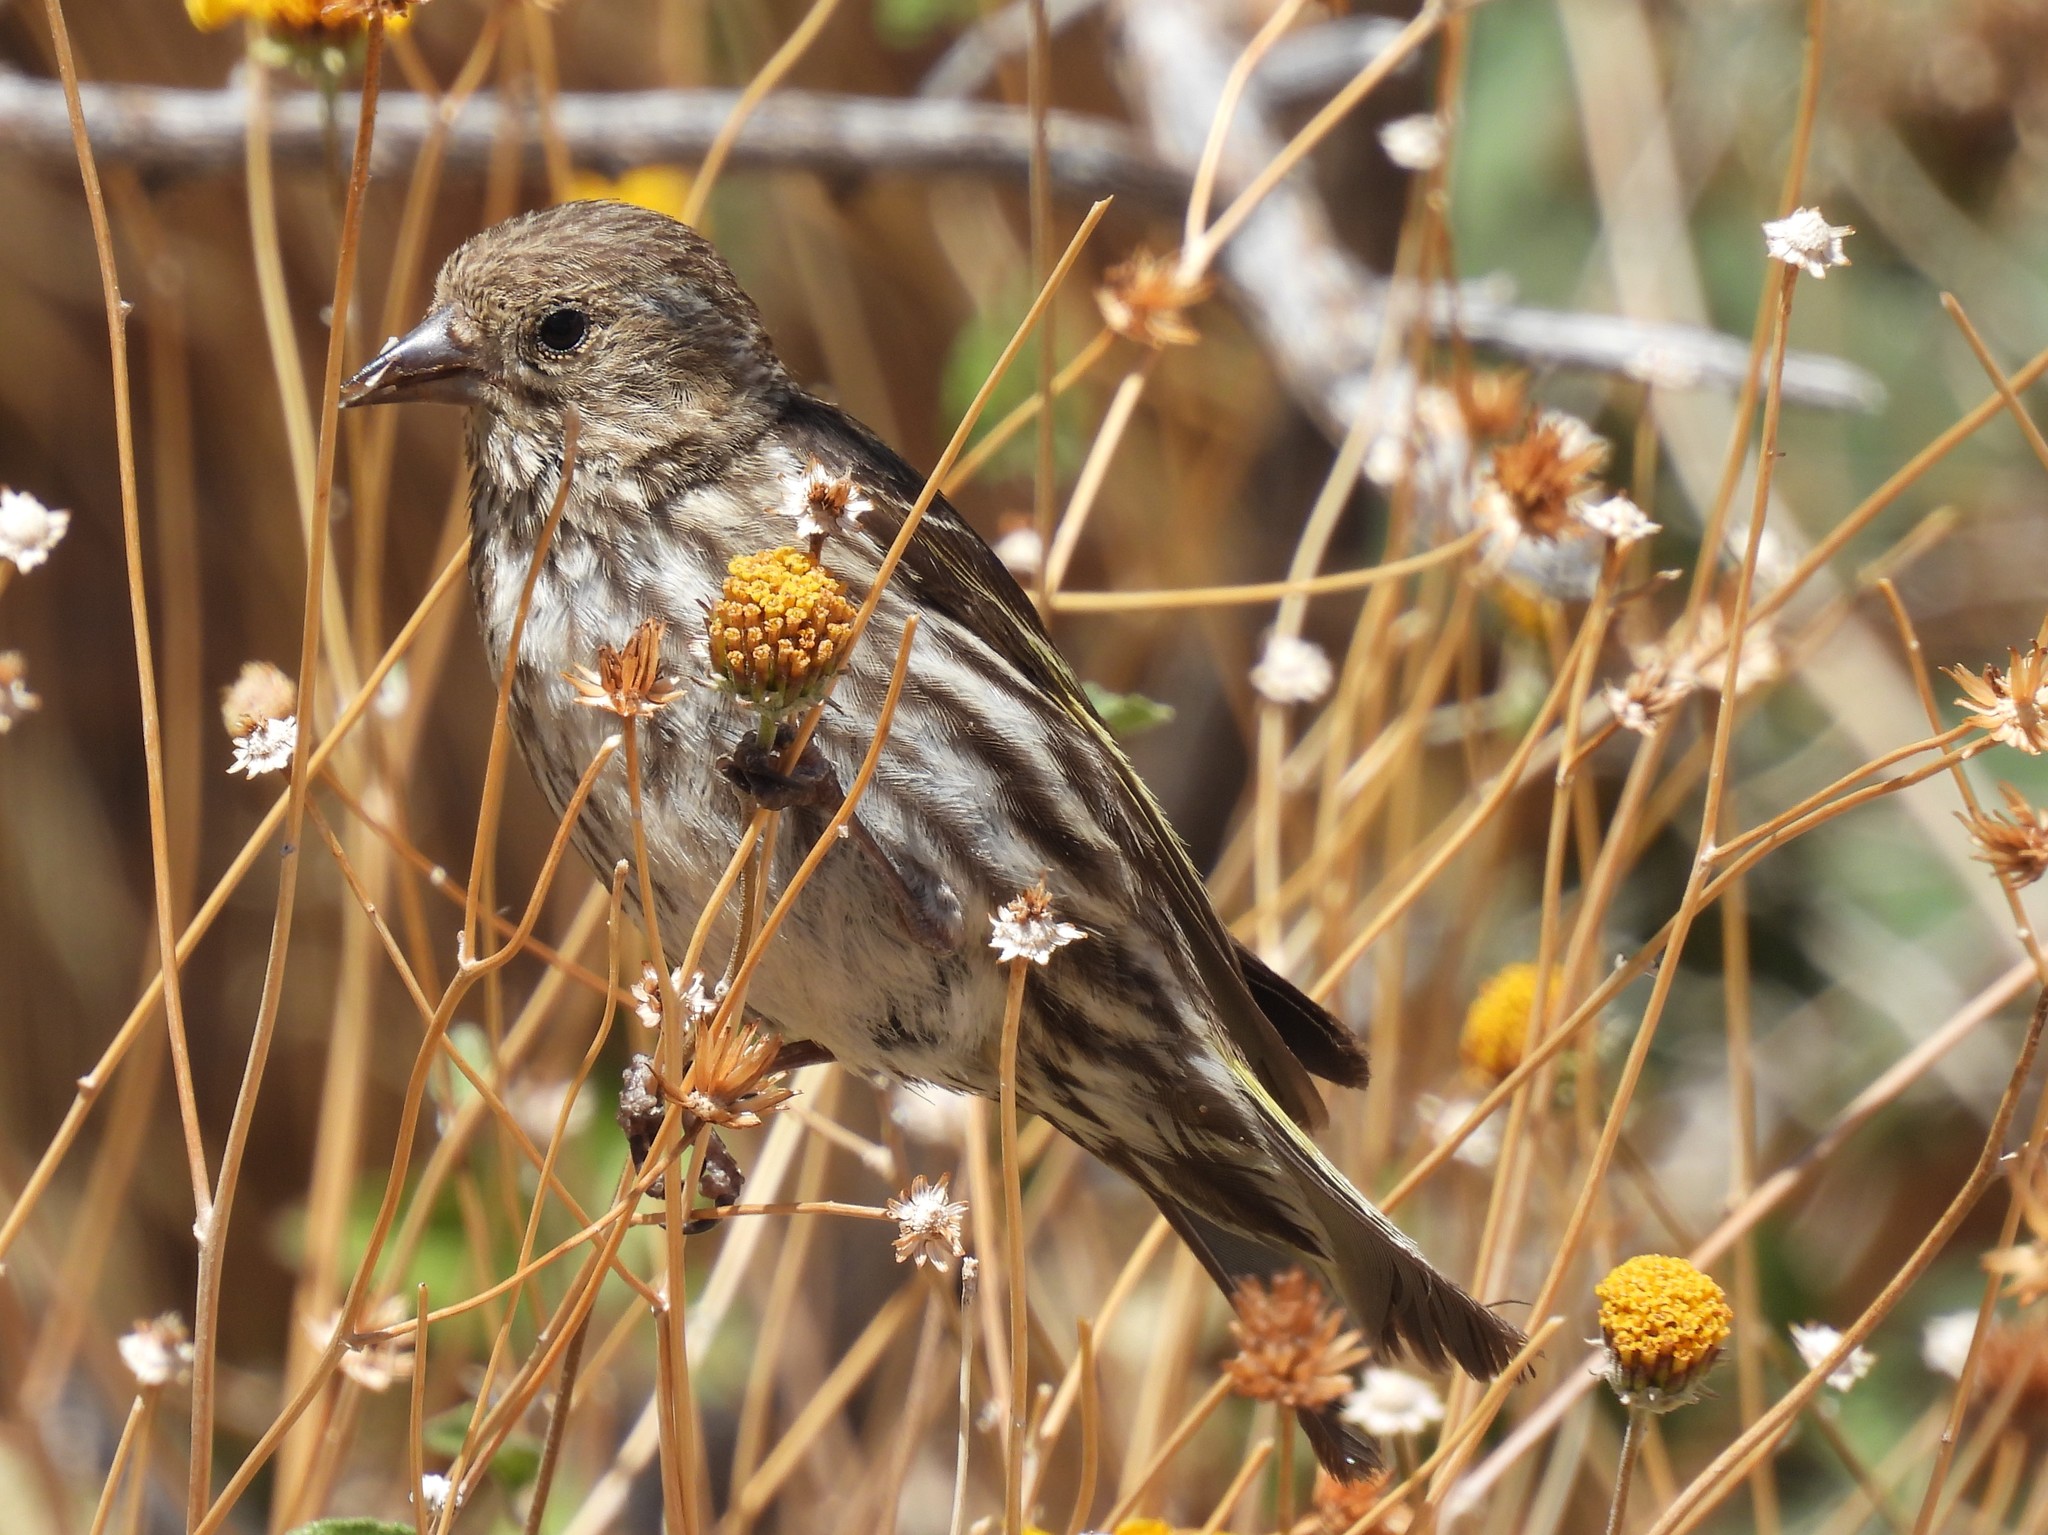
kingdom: Animalia
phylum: Chordata
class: Aves
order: Passeriformes
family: Fringillidae
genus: Spinus
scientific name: Spinus pinus
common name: Pine siskin
